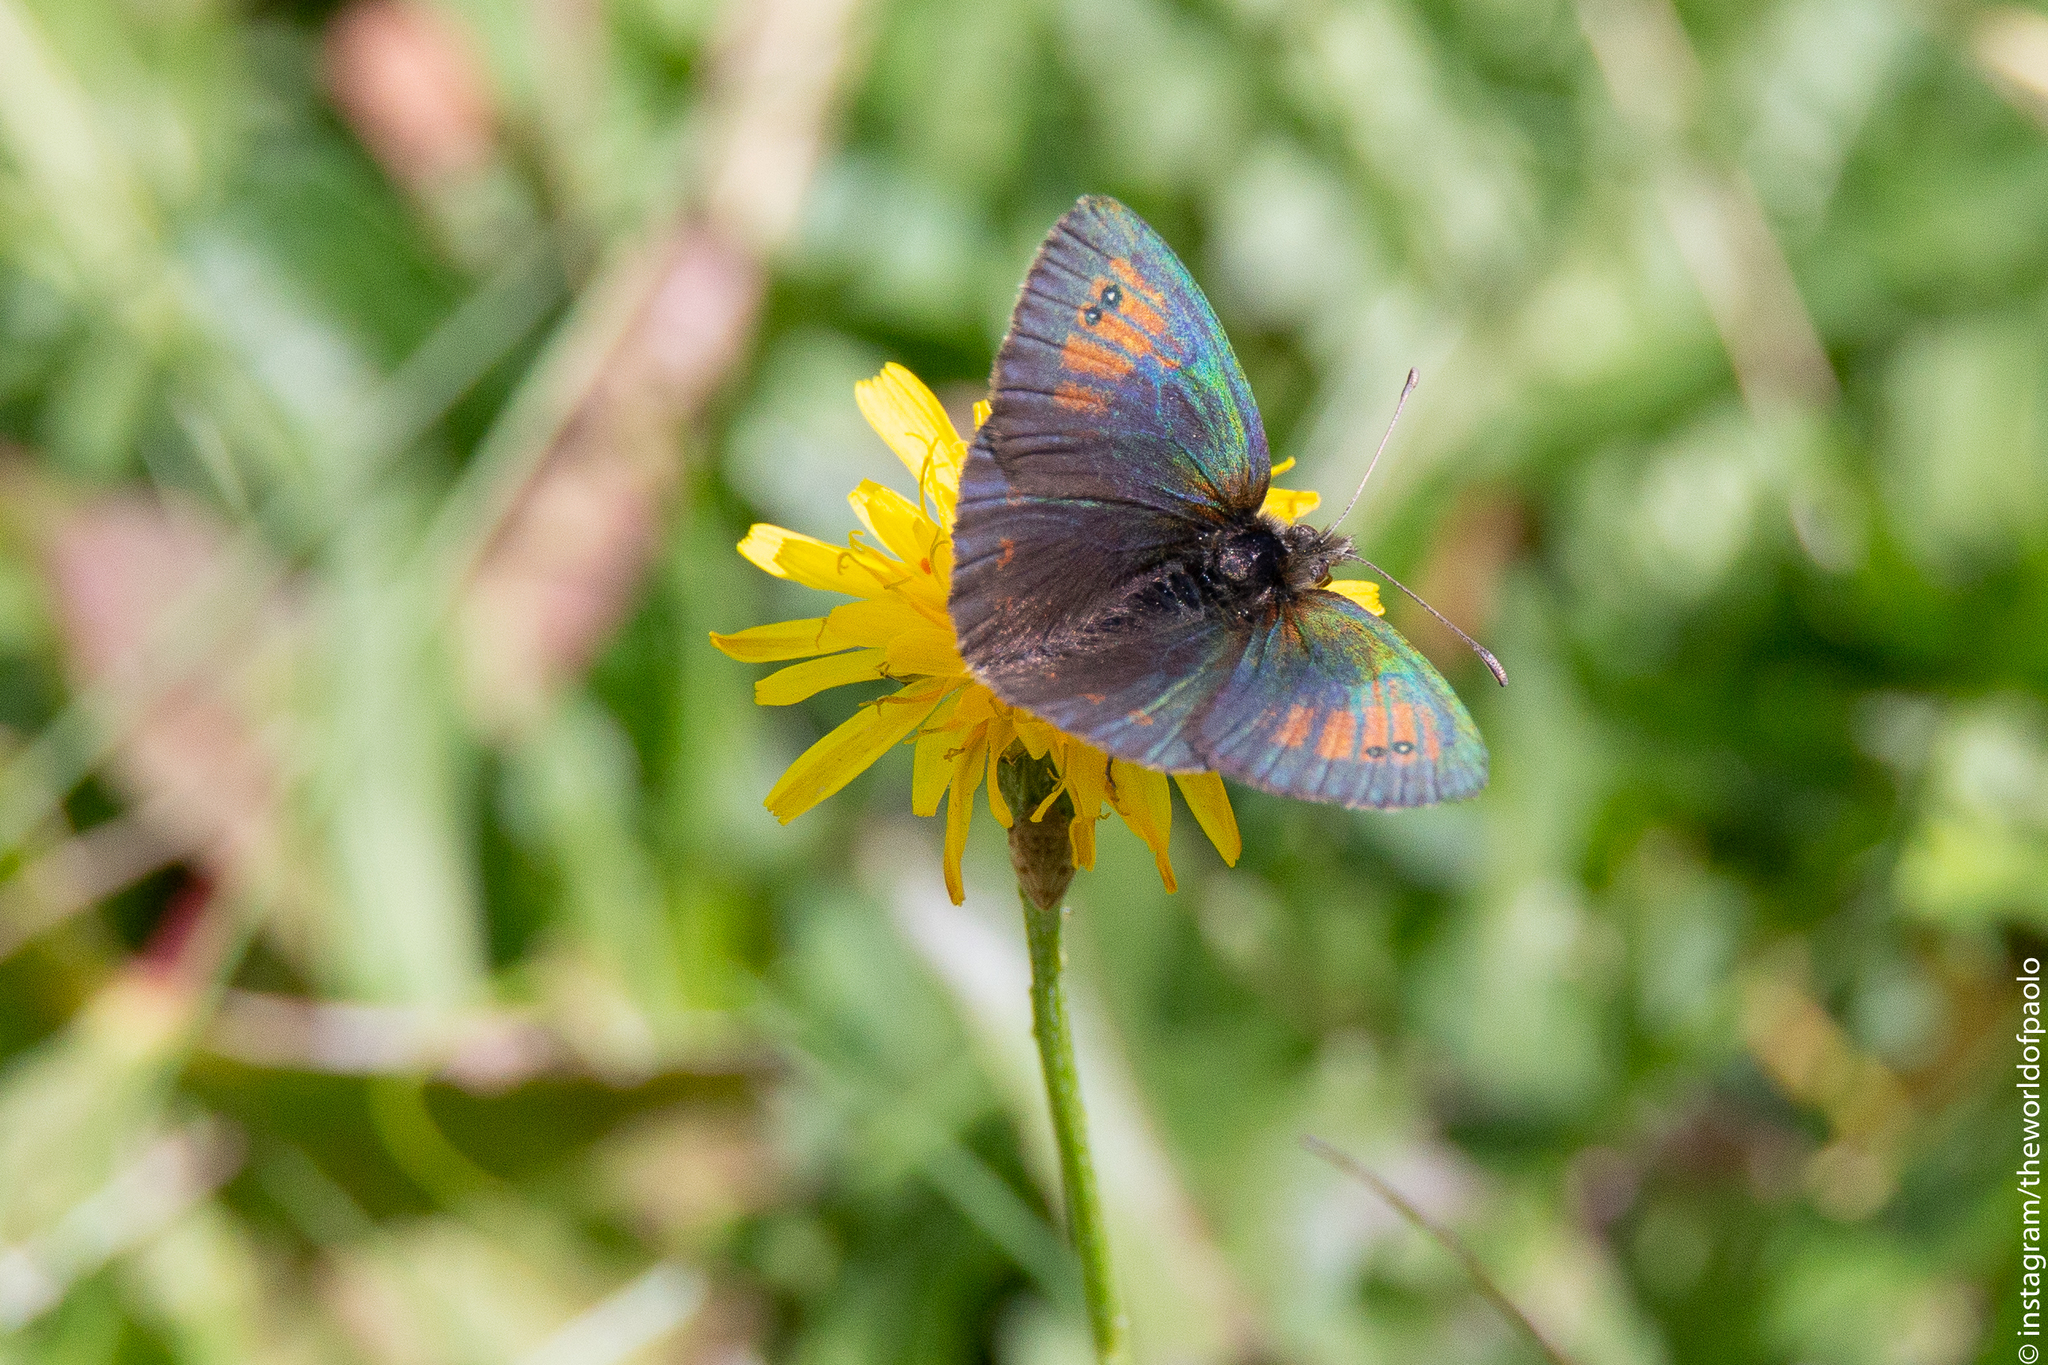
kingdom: Animalia
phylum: Arthropoda
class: Insecta
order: Lepidoptera
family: Nymphalidae
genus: Erebia
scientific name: Erebia tyndarus
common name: Swiss brassy ringlet
